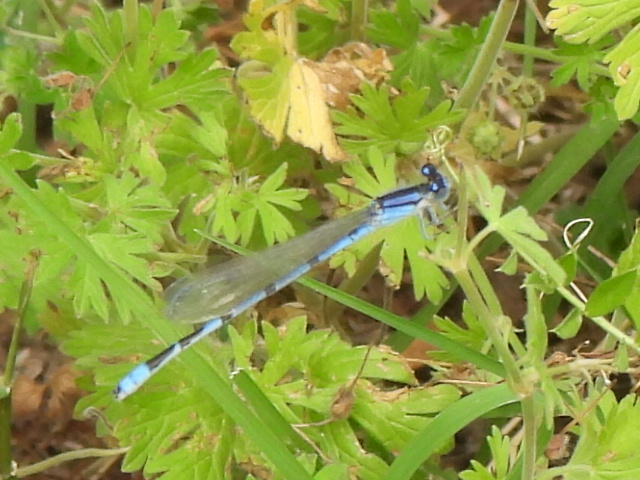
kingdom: Animalia
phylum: Arthropoda
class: Insecta
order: Odonata
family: Coenagrionidae
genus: Enallagma
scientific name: Enallagma civile
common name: Damselfly
